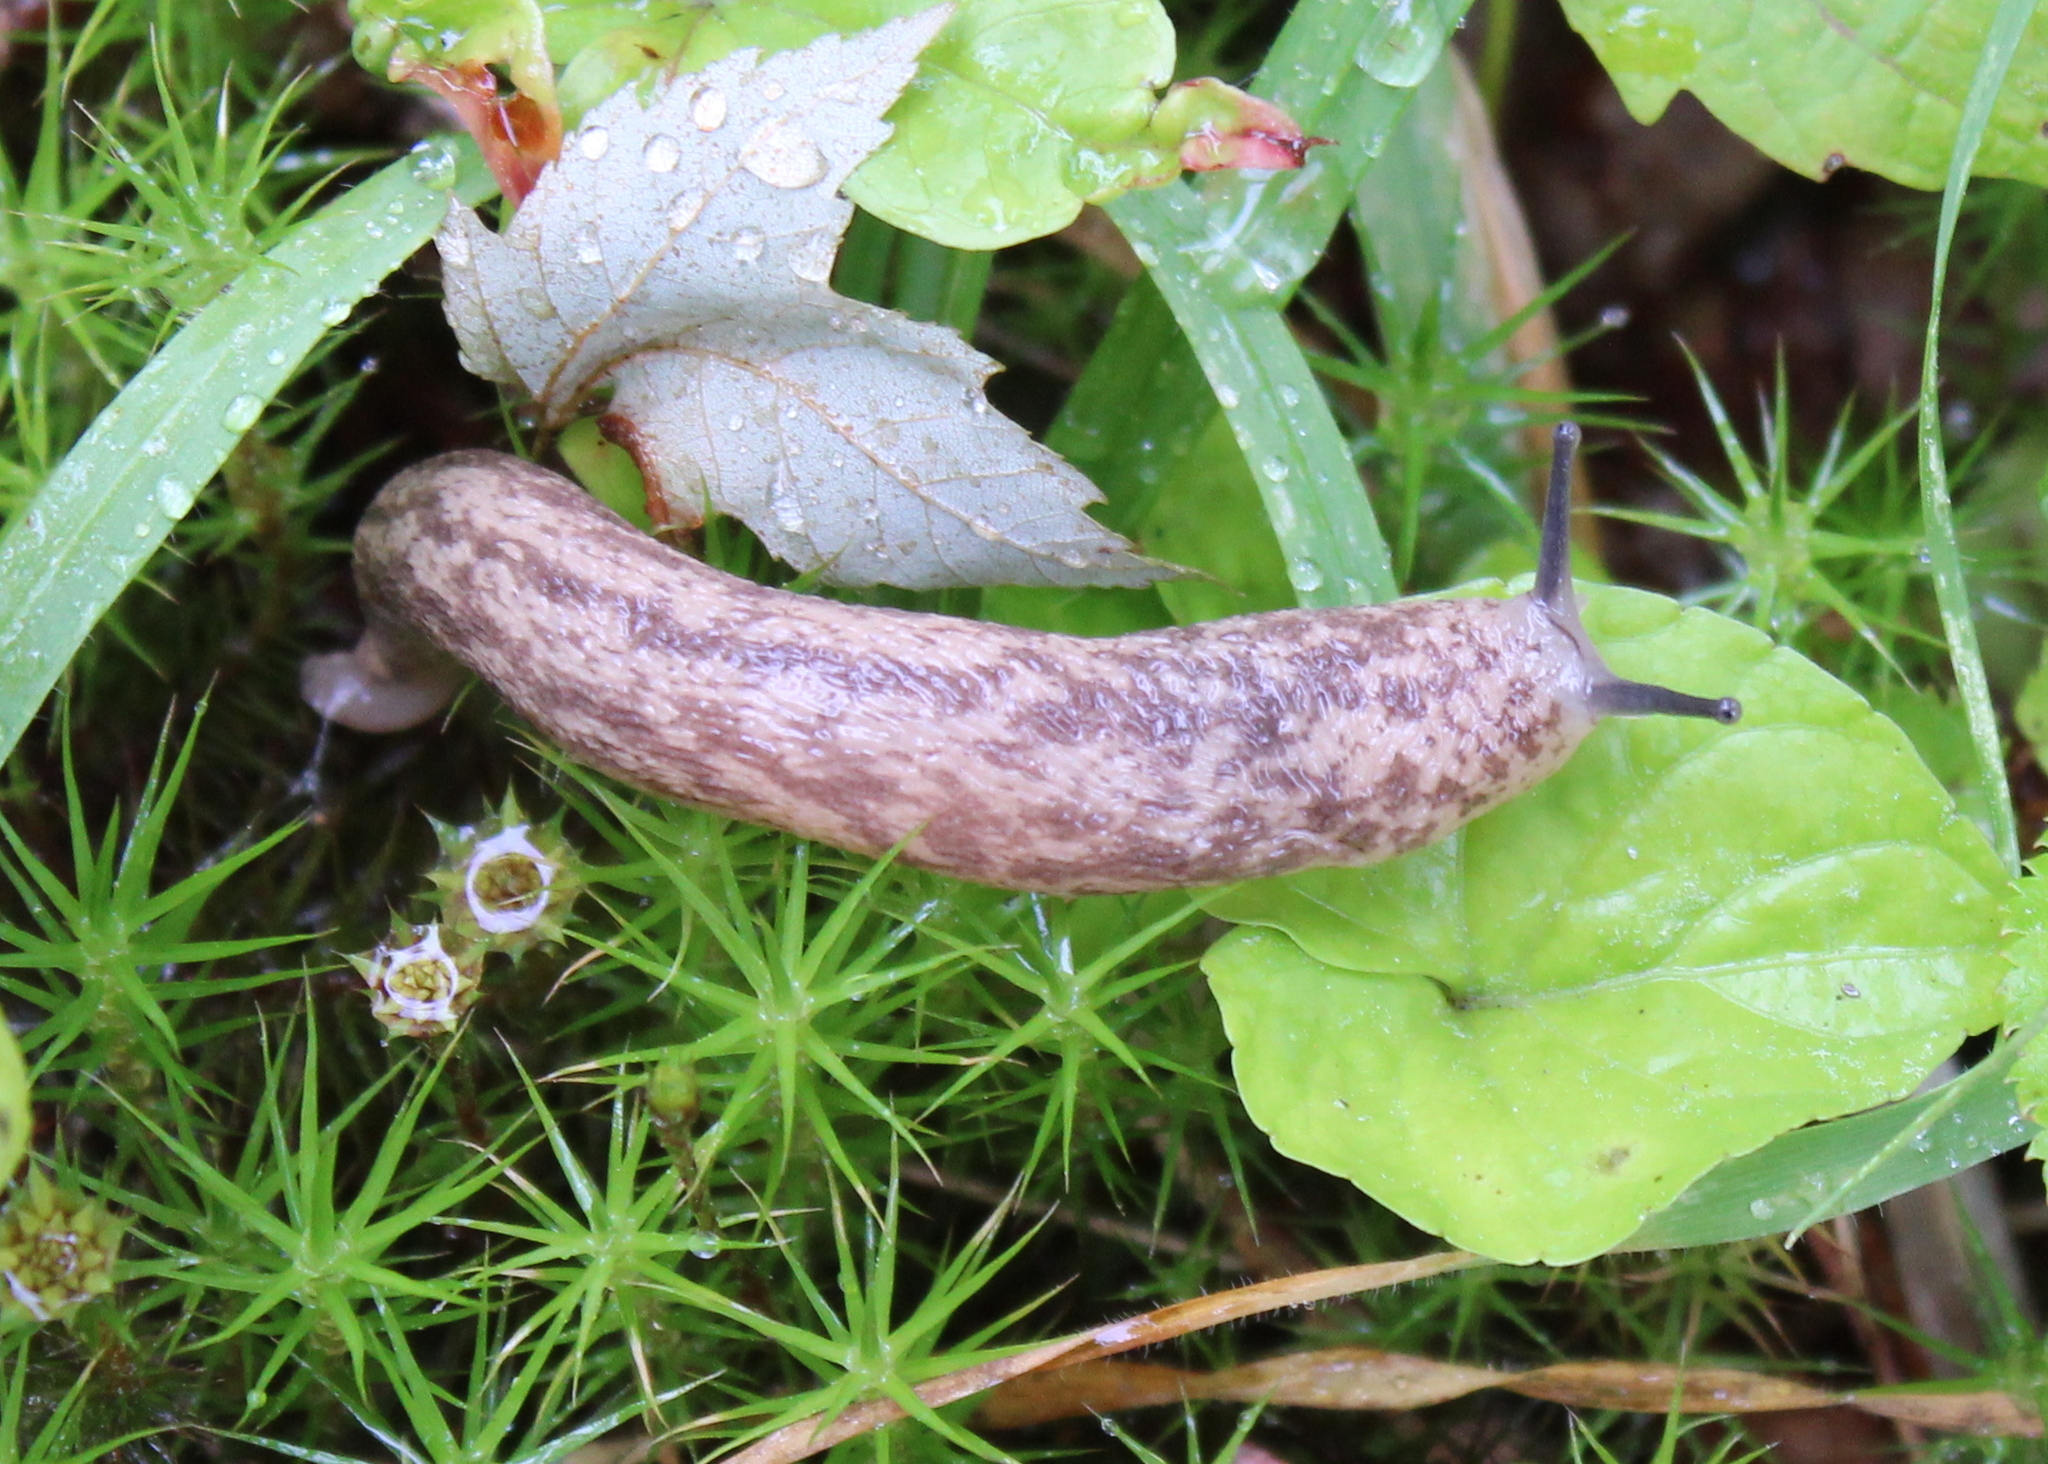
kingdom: Animalia
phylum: Mollusca
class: Gastropoda
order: Stylommatophora
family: Philomycidae
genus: Philomycus
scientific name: Philomycus flexuolaris
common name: Winding mantleslug
